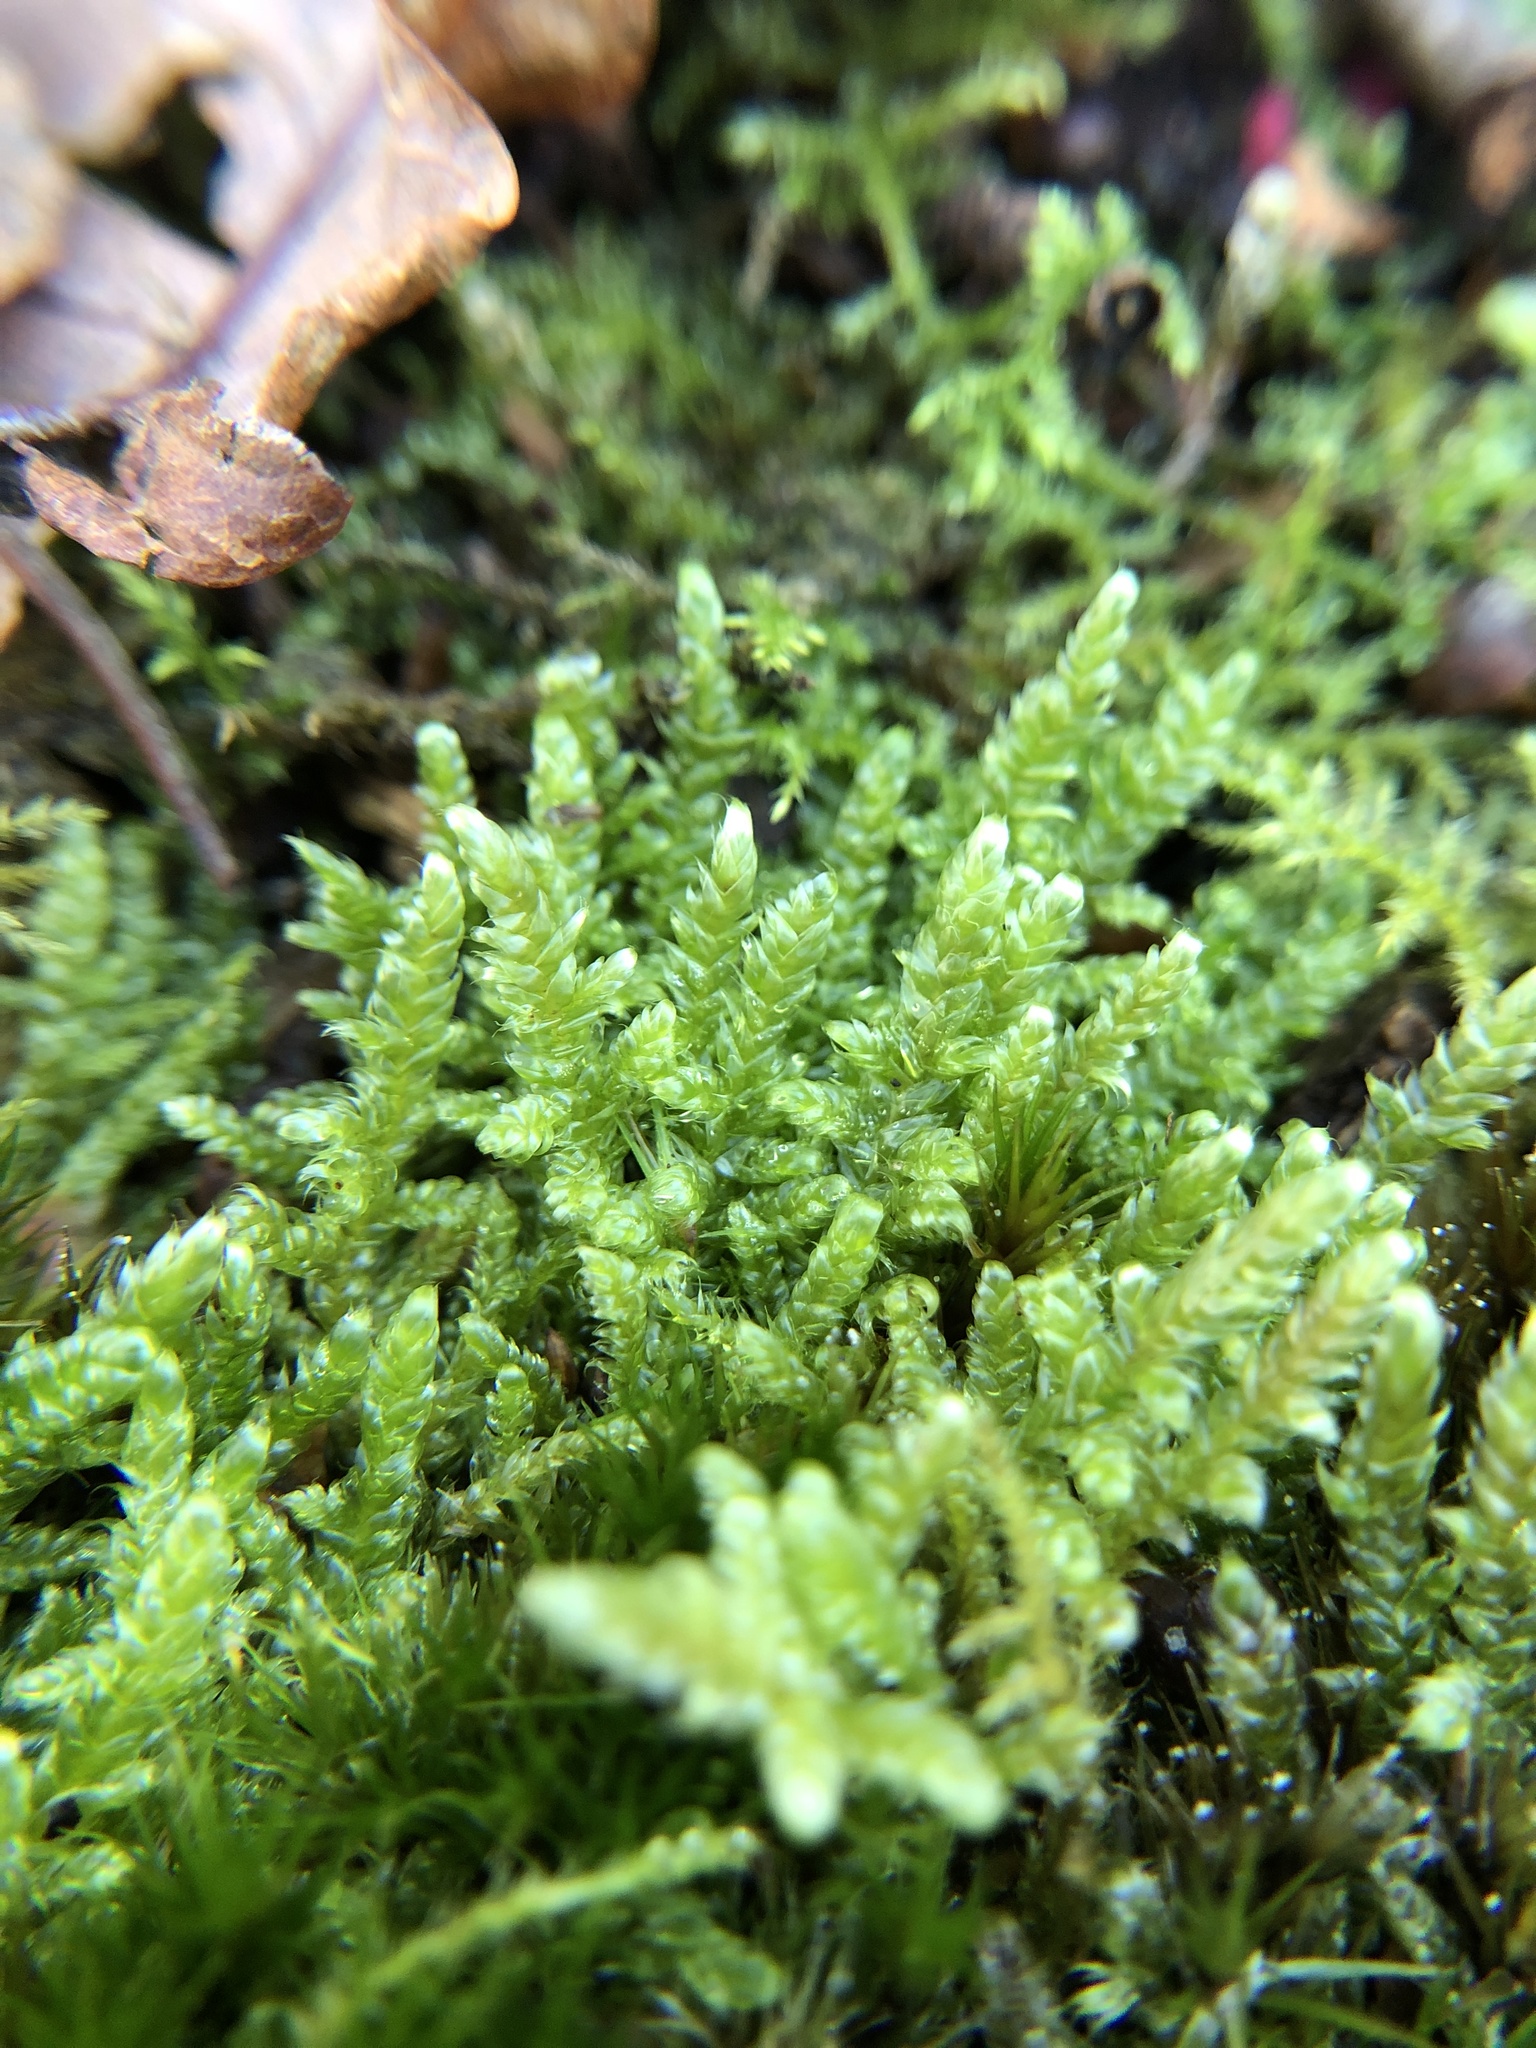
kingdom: Plantae
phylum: Bryophyta
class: Bryopsida
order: Hypnales
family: Hypnaceae
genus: Hypnum
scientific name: Hypnum jutlandicum
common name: Heath plait-moss
